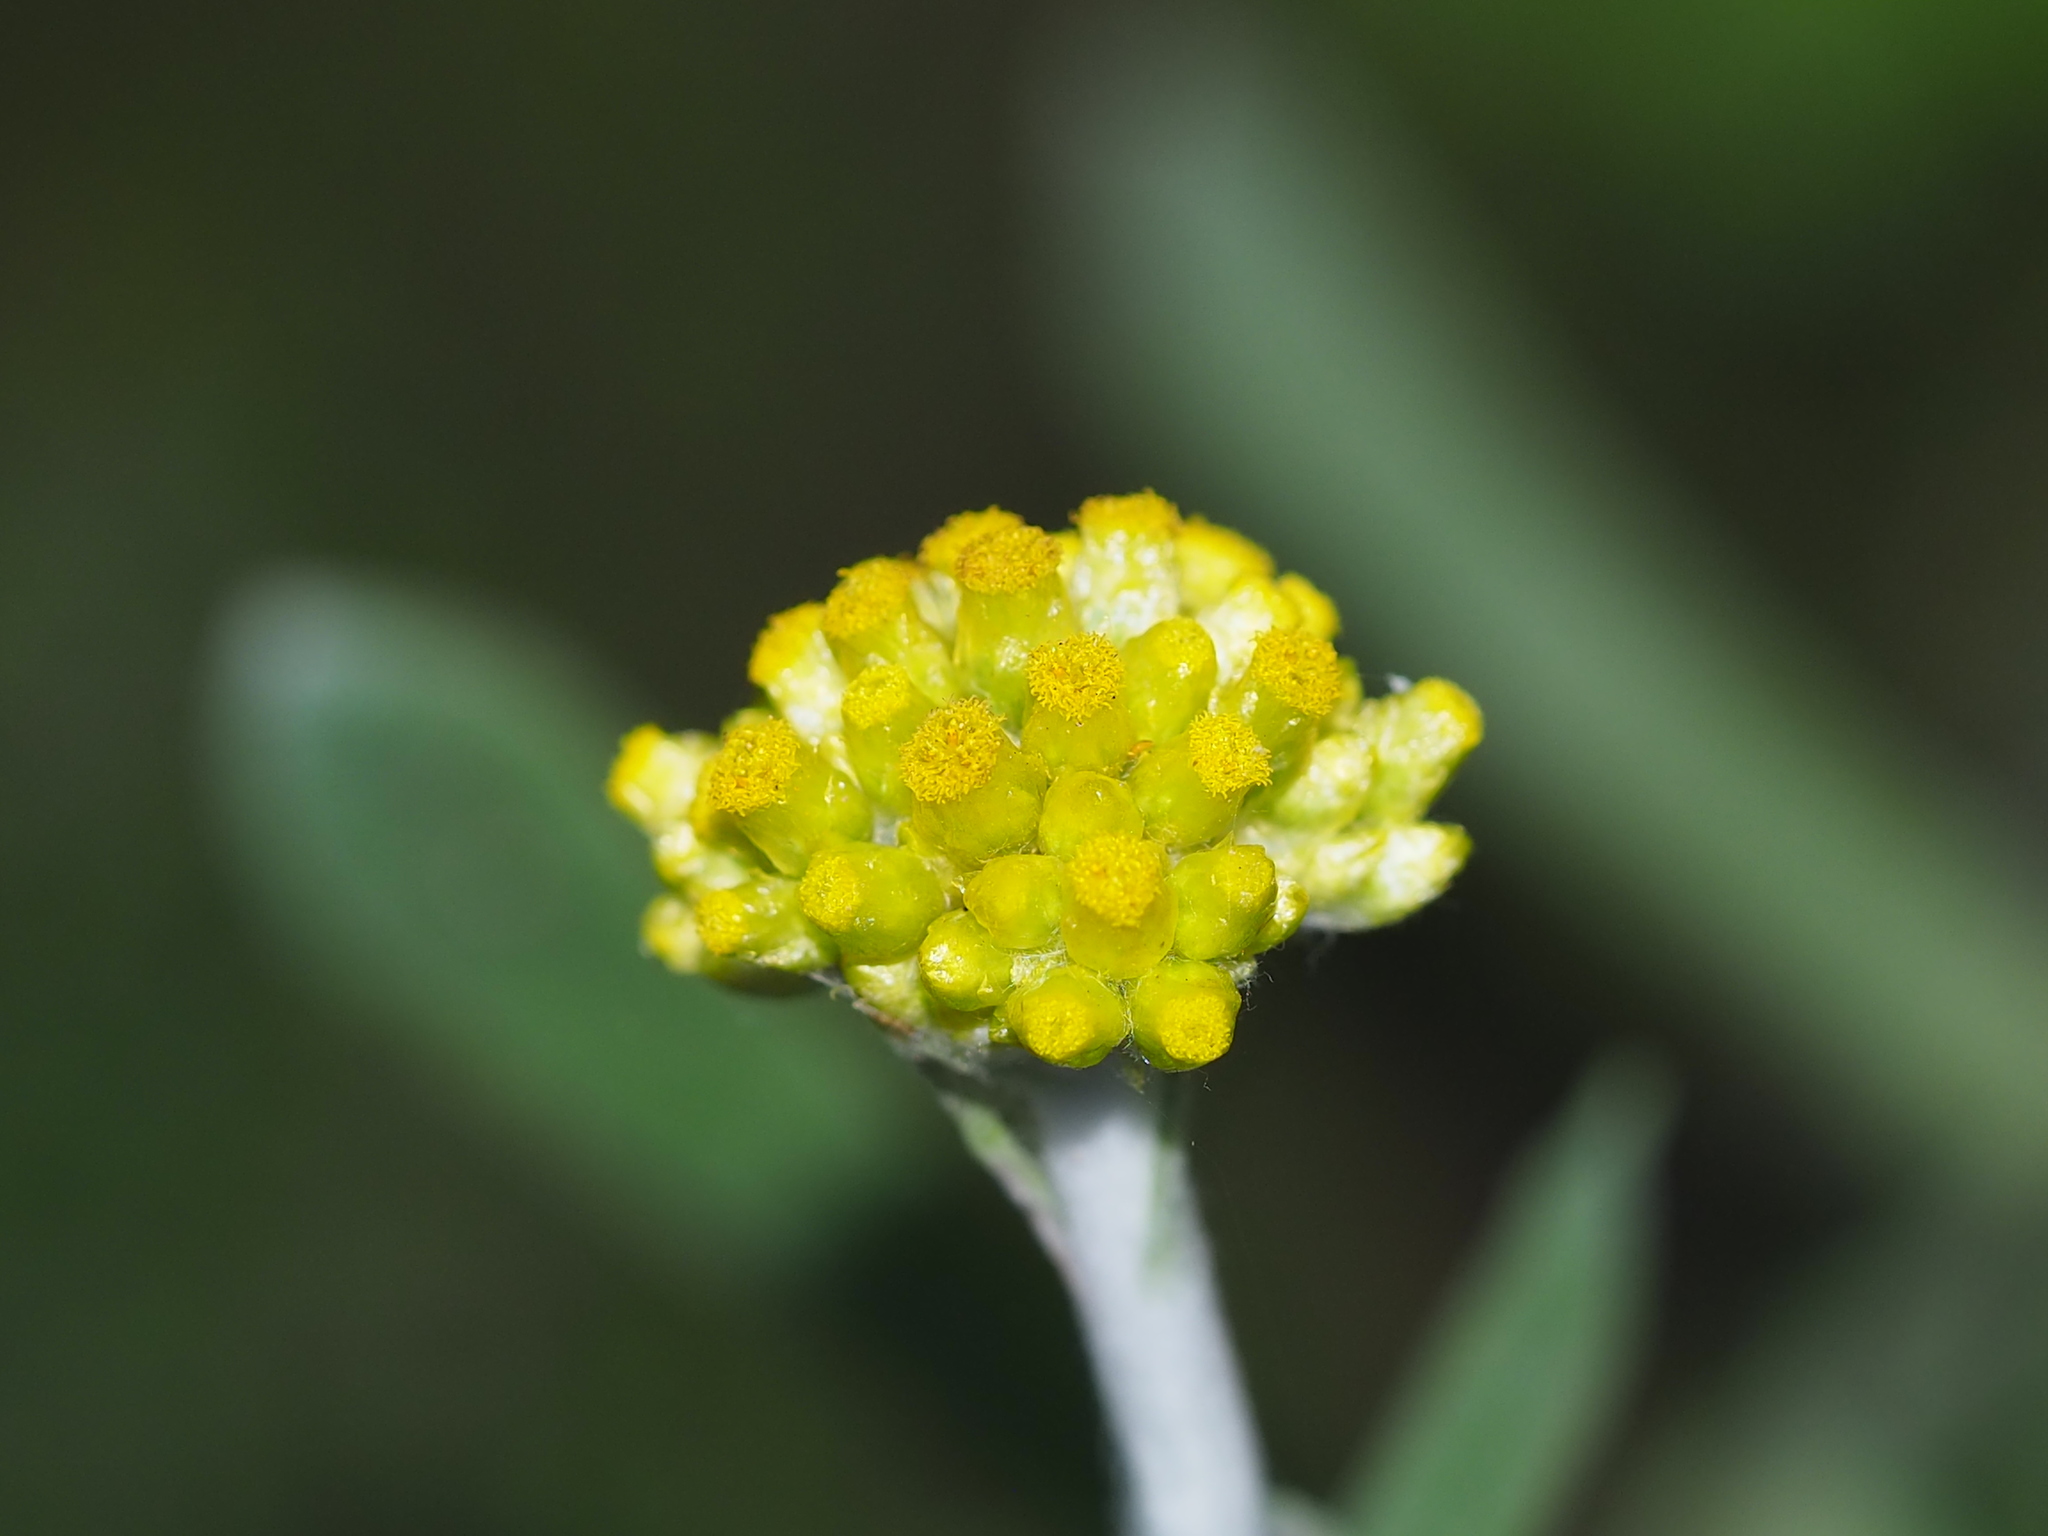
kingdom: Plantae
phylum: Tracheophyta
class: Magnoliopsida
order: Asterales
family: Asteraceae
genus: Pseudognaphalium
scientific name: Pseudognaphalium affine
